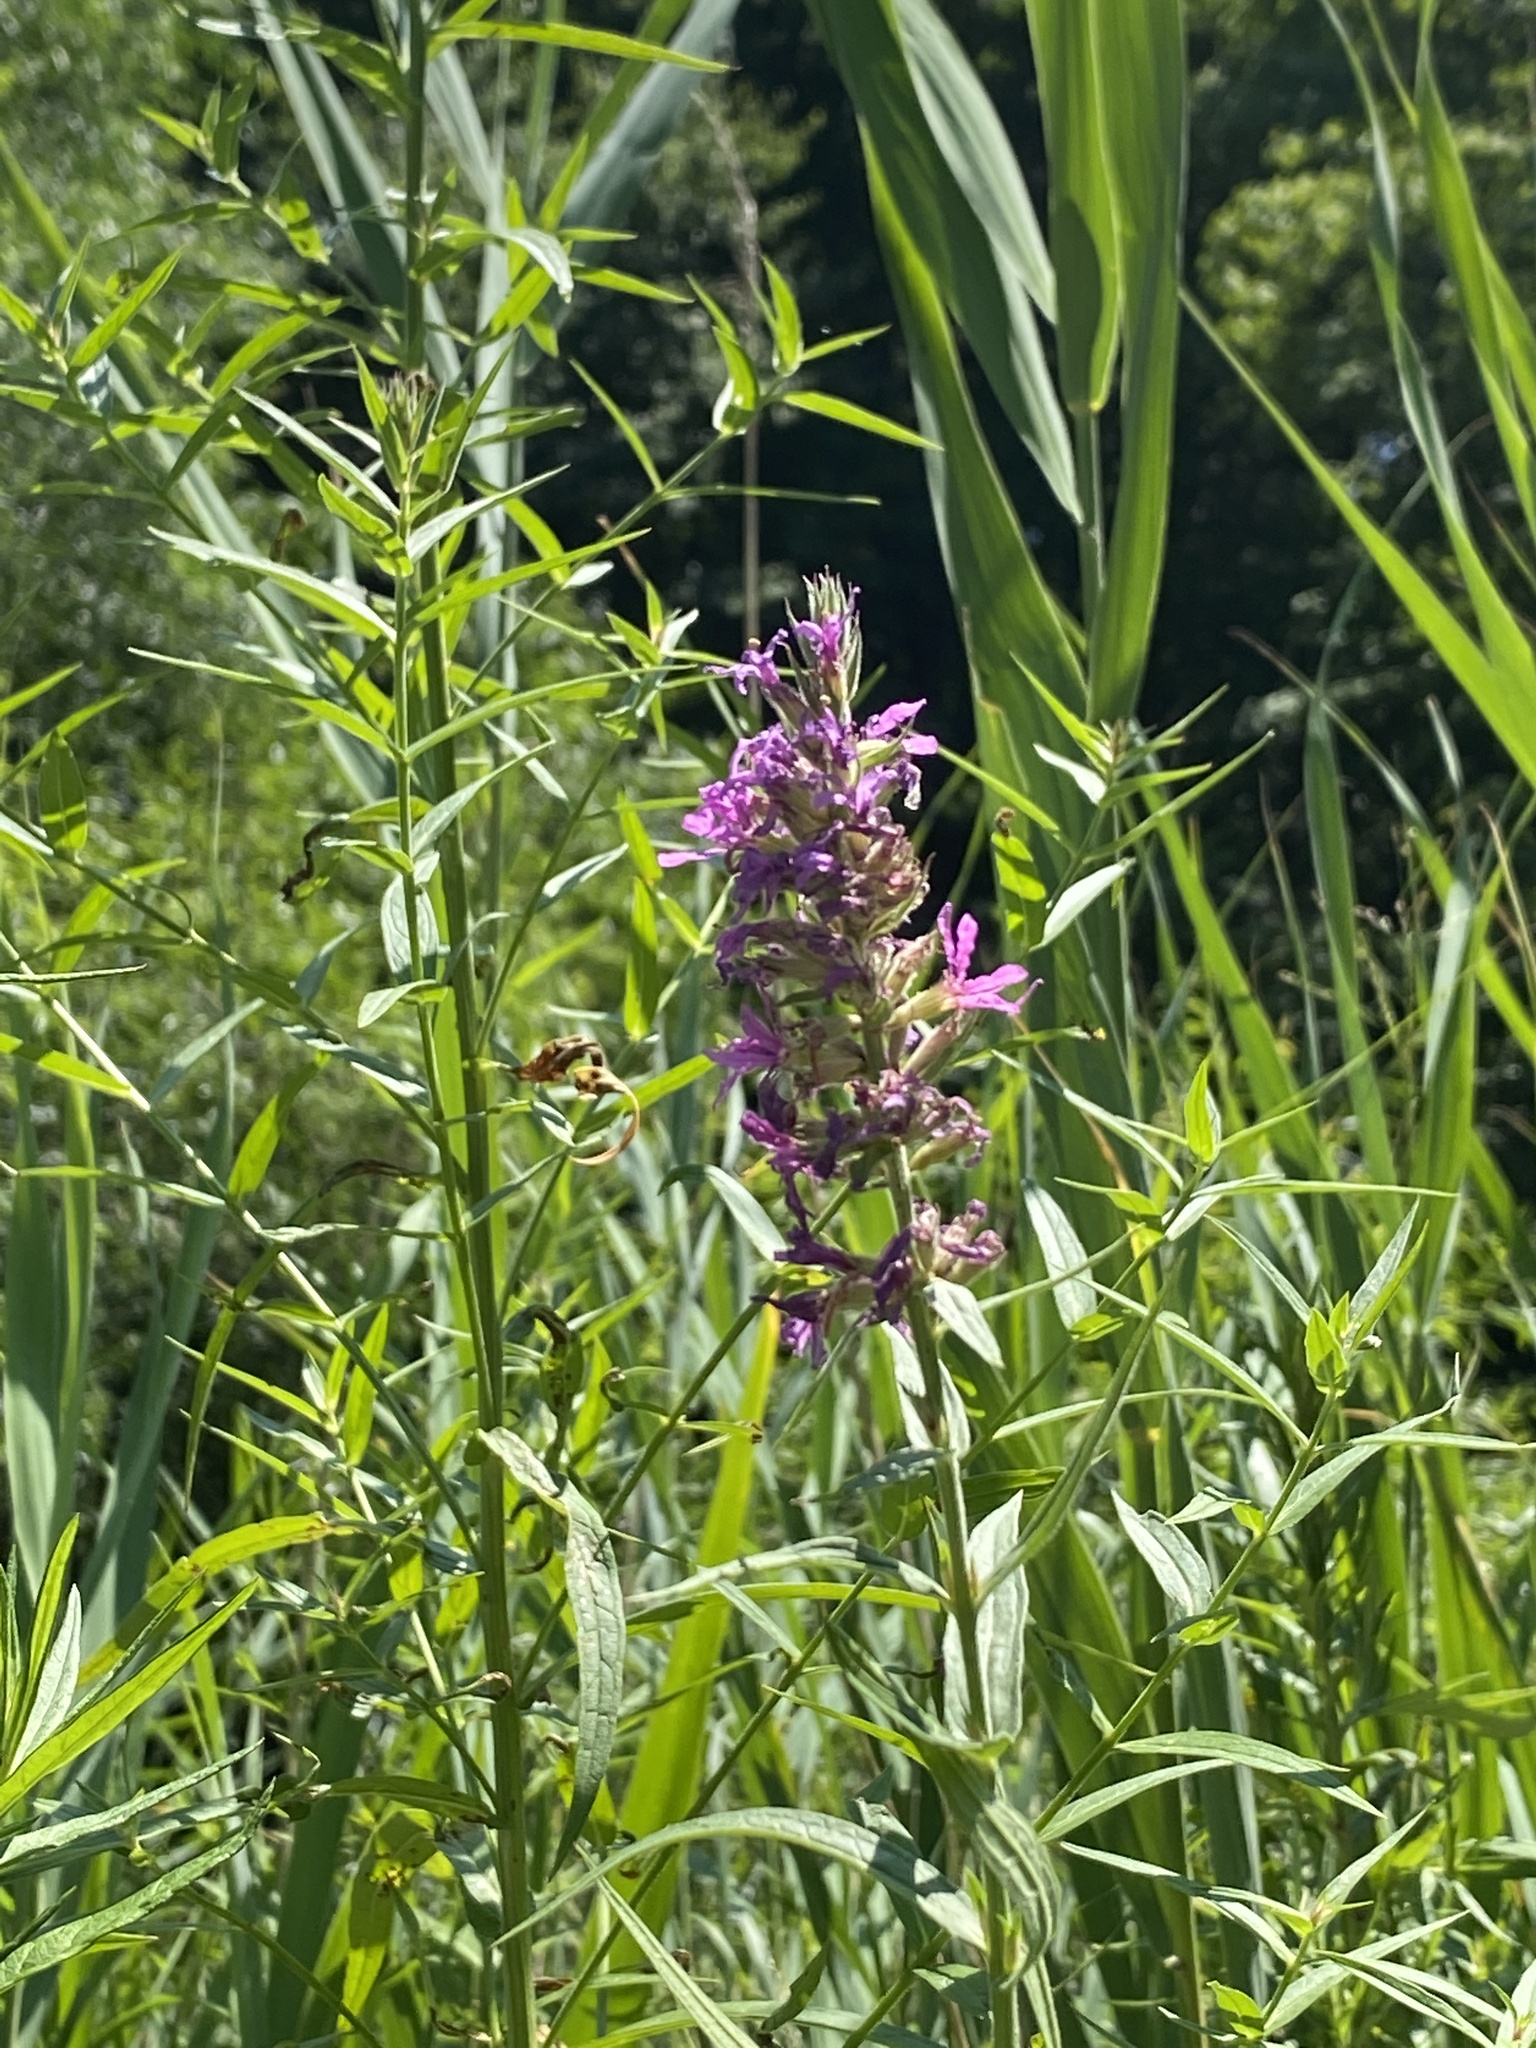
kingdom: Plantae
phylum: Tracheophyta
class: Magnoliopsida
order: Myrtales
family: Lythraceae
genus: Lythrum
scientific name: Lythrum salicaria
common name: Purple loosestrife
